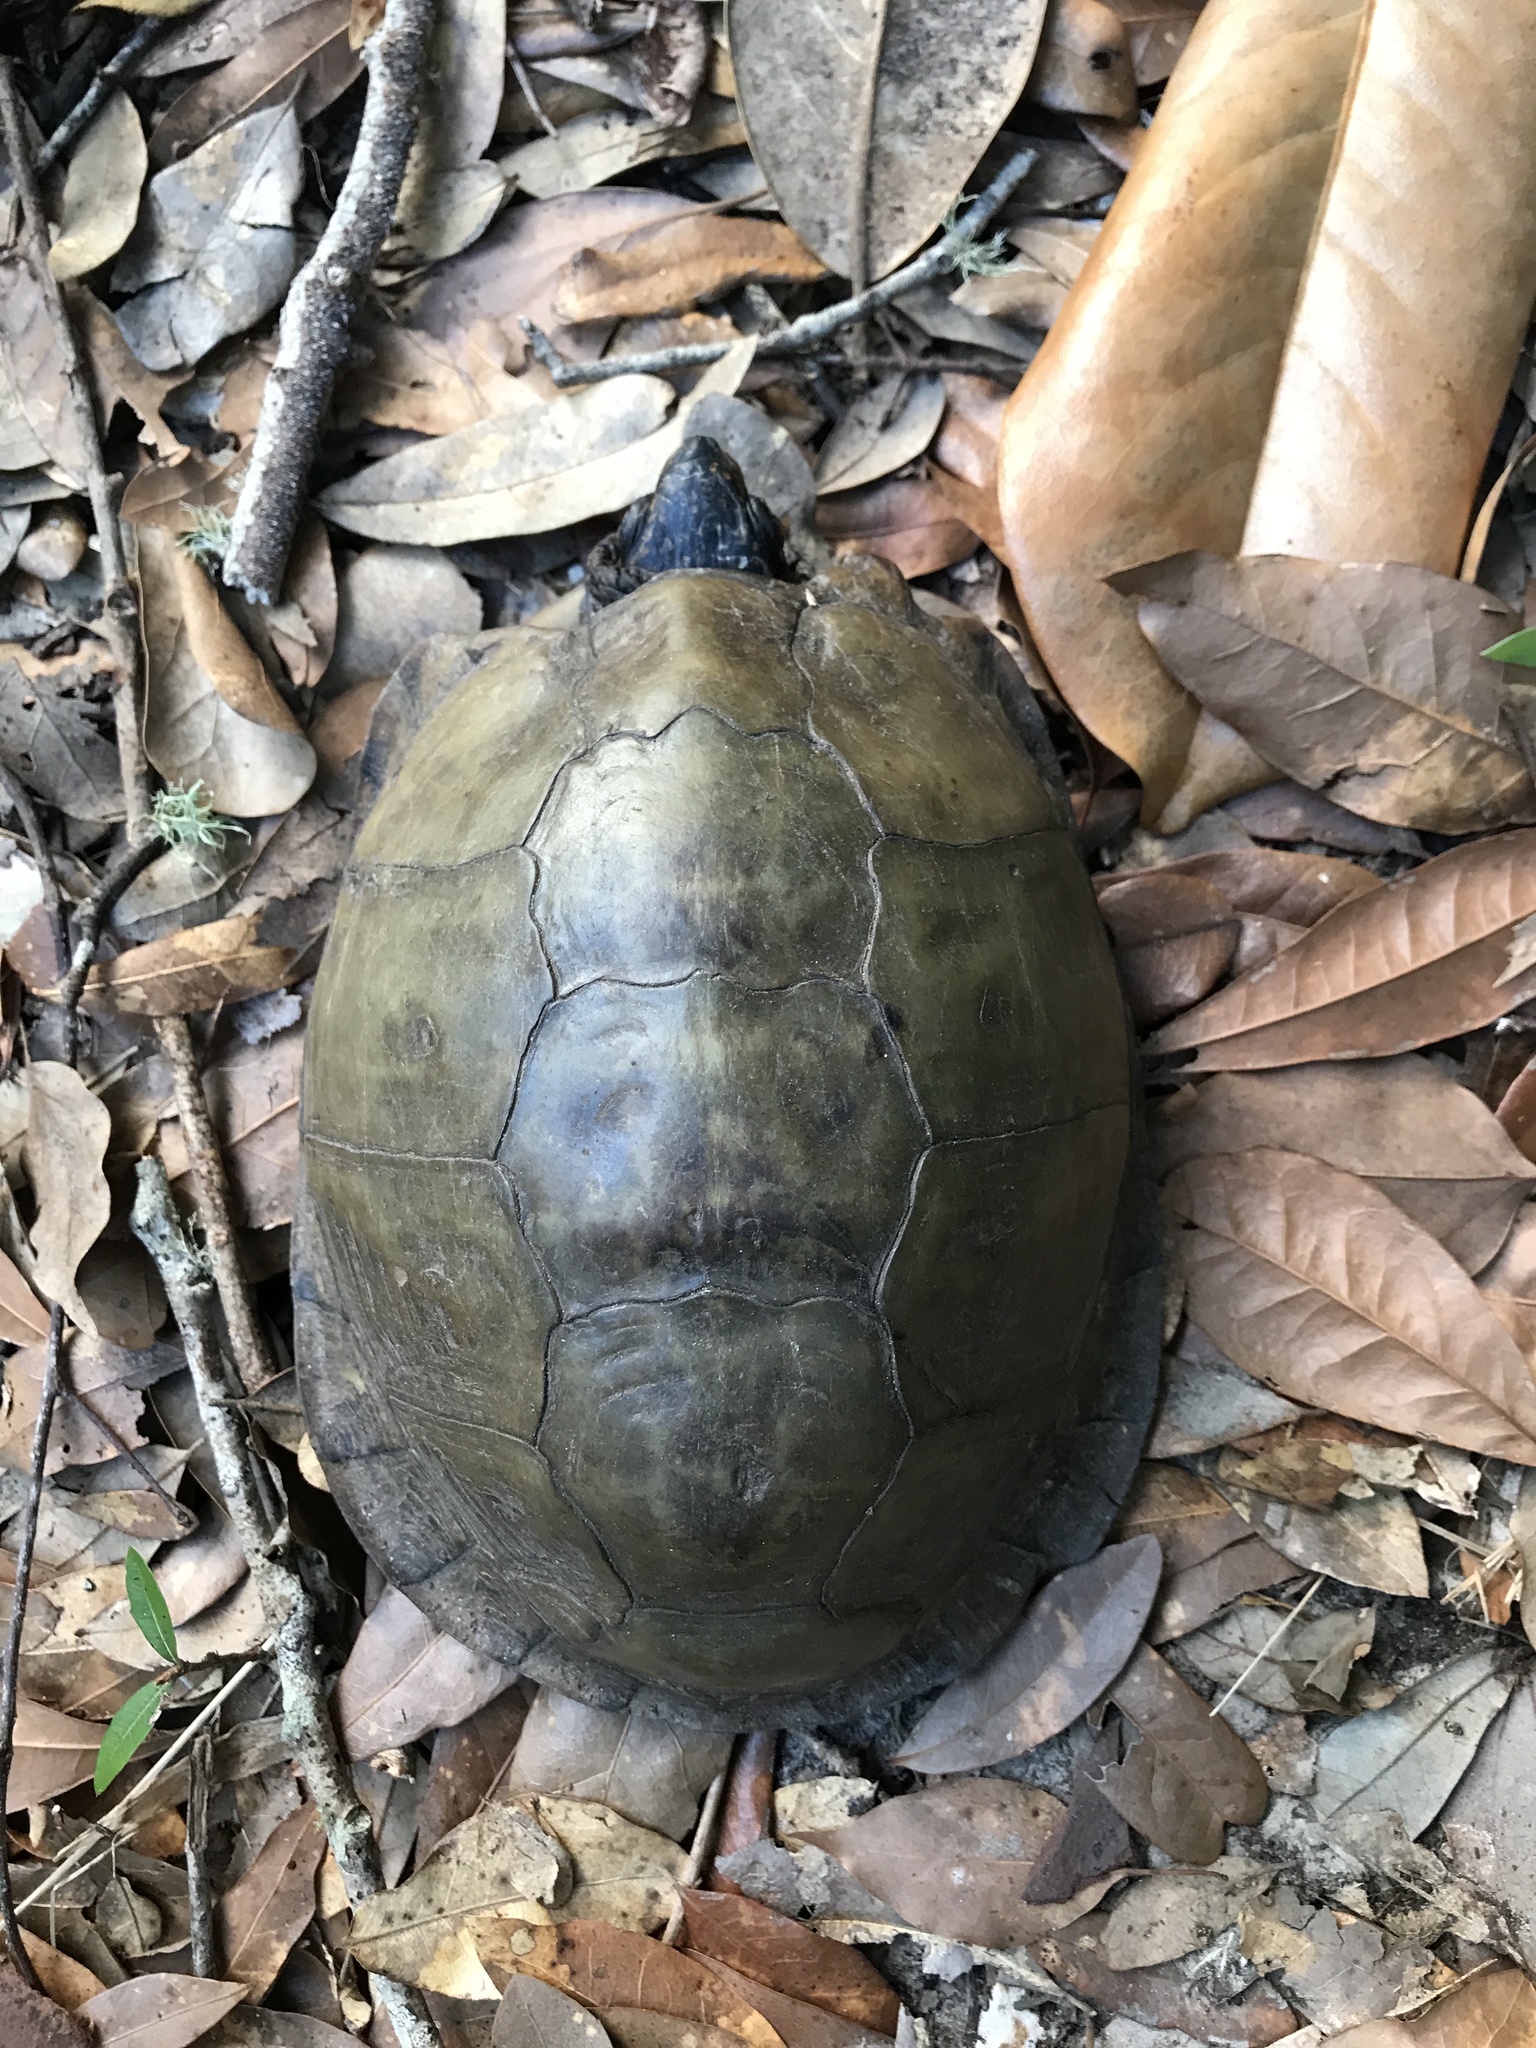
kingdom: Animalia
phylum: Chordata
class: Testudines
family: Emydidae
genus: Terrapene
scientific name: Terrapene carolina
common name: Common box turtle
